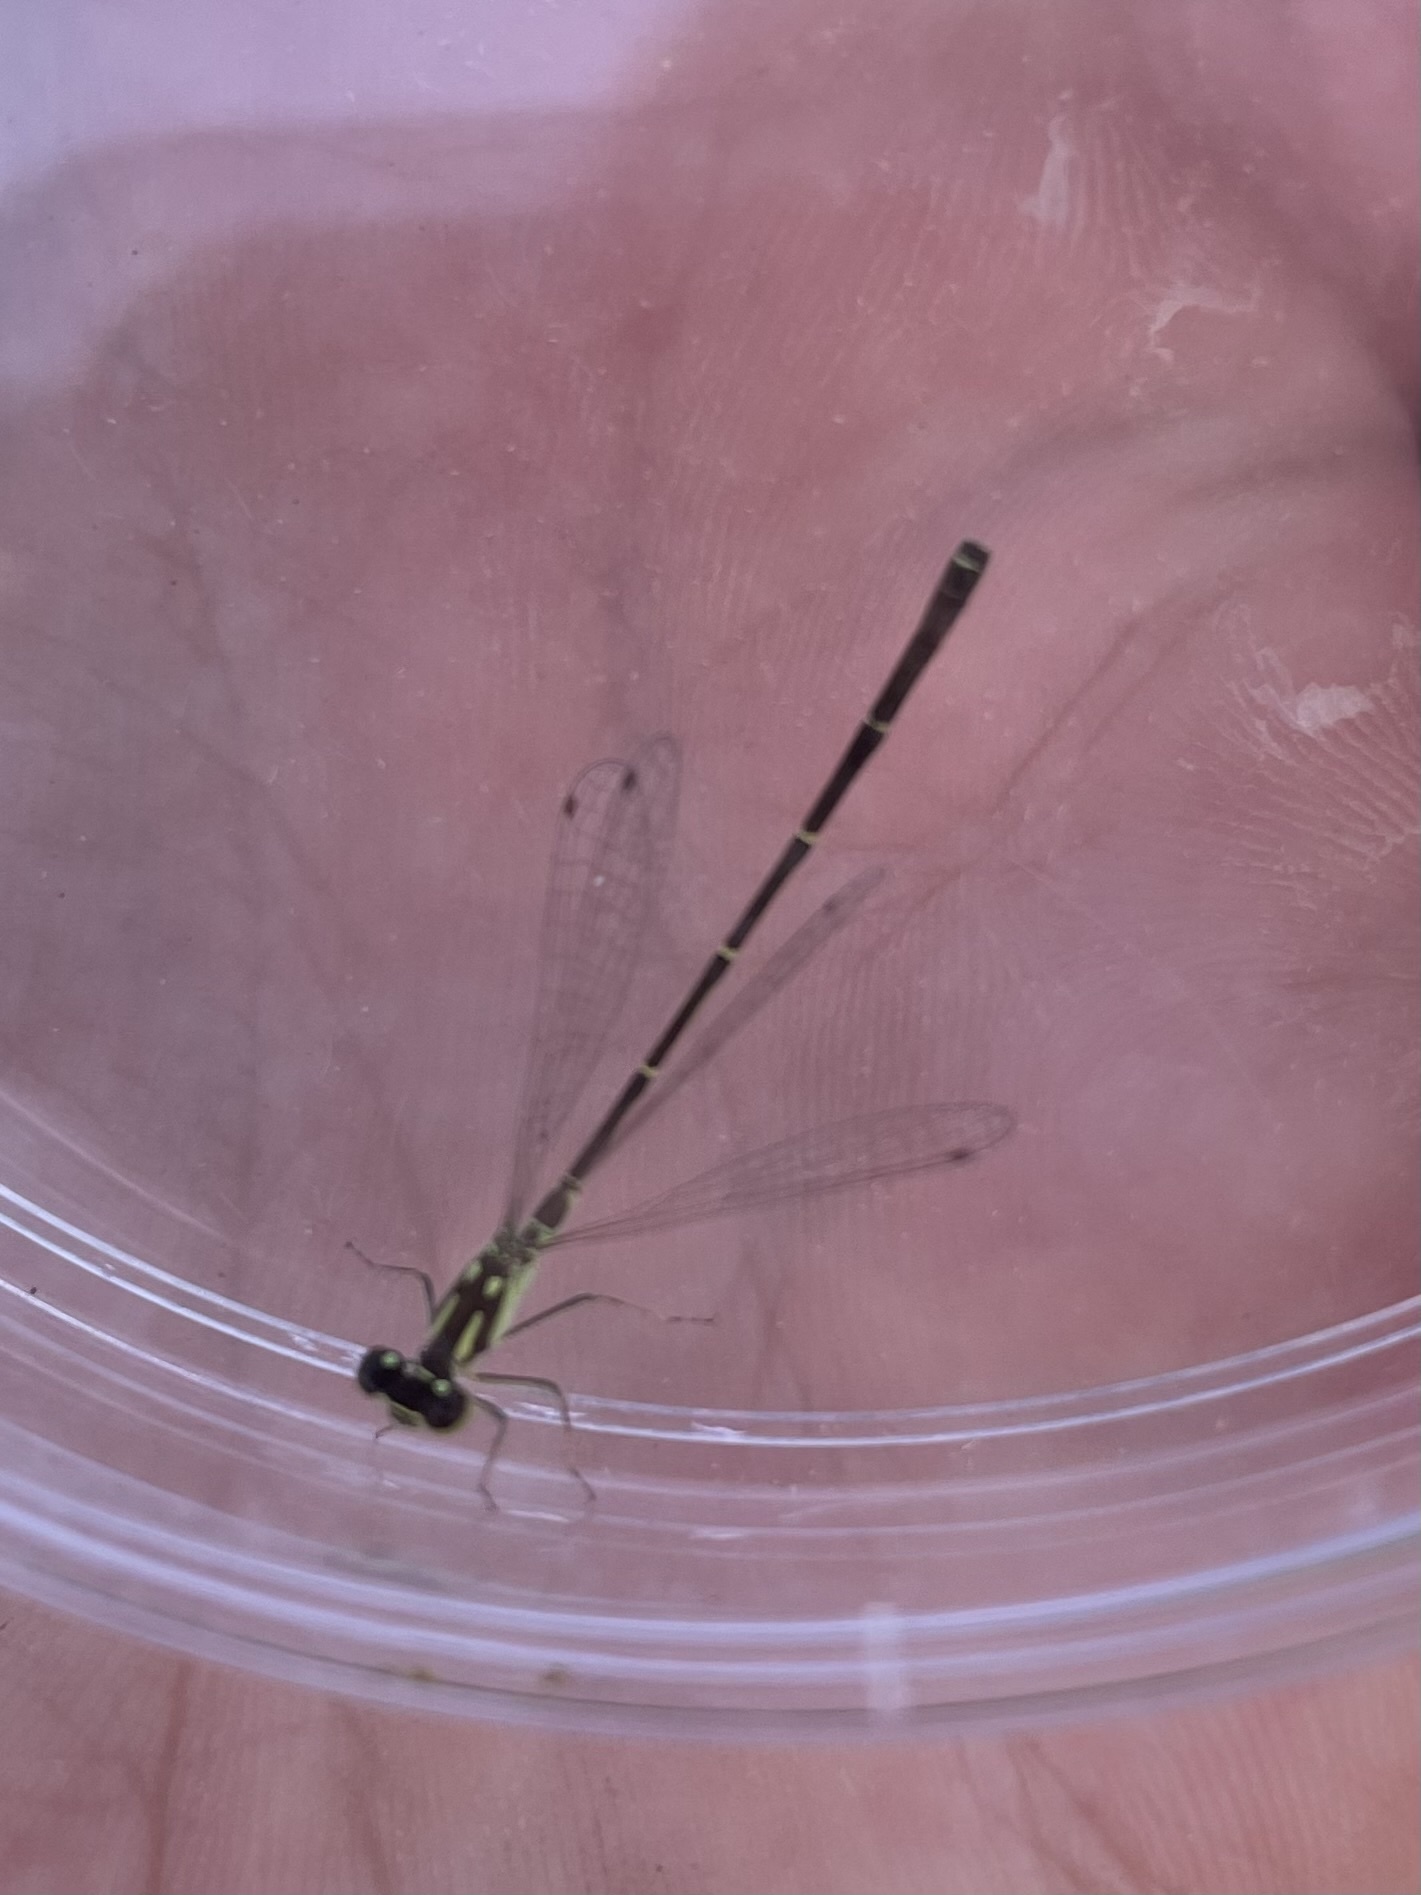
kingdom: Animalia
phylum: Arthropoda
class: Insecta
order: Odonata
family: Coenagrionidae
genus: Ischnura
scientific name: Ischnura posita
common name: Fragile forktail
